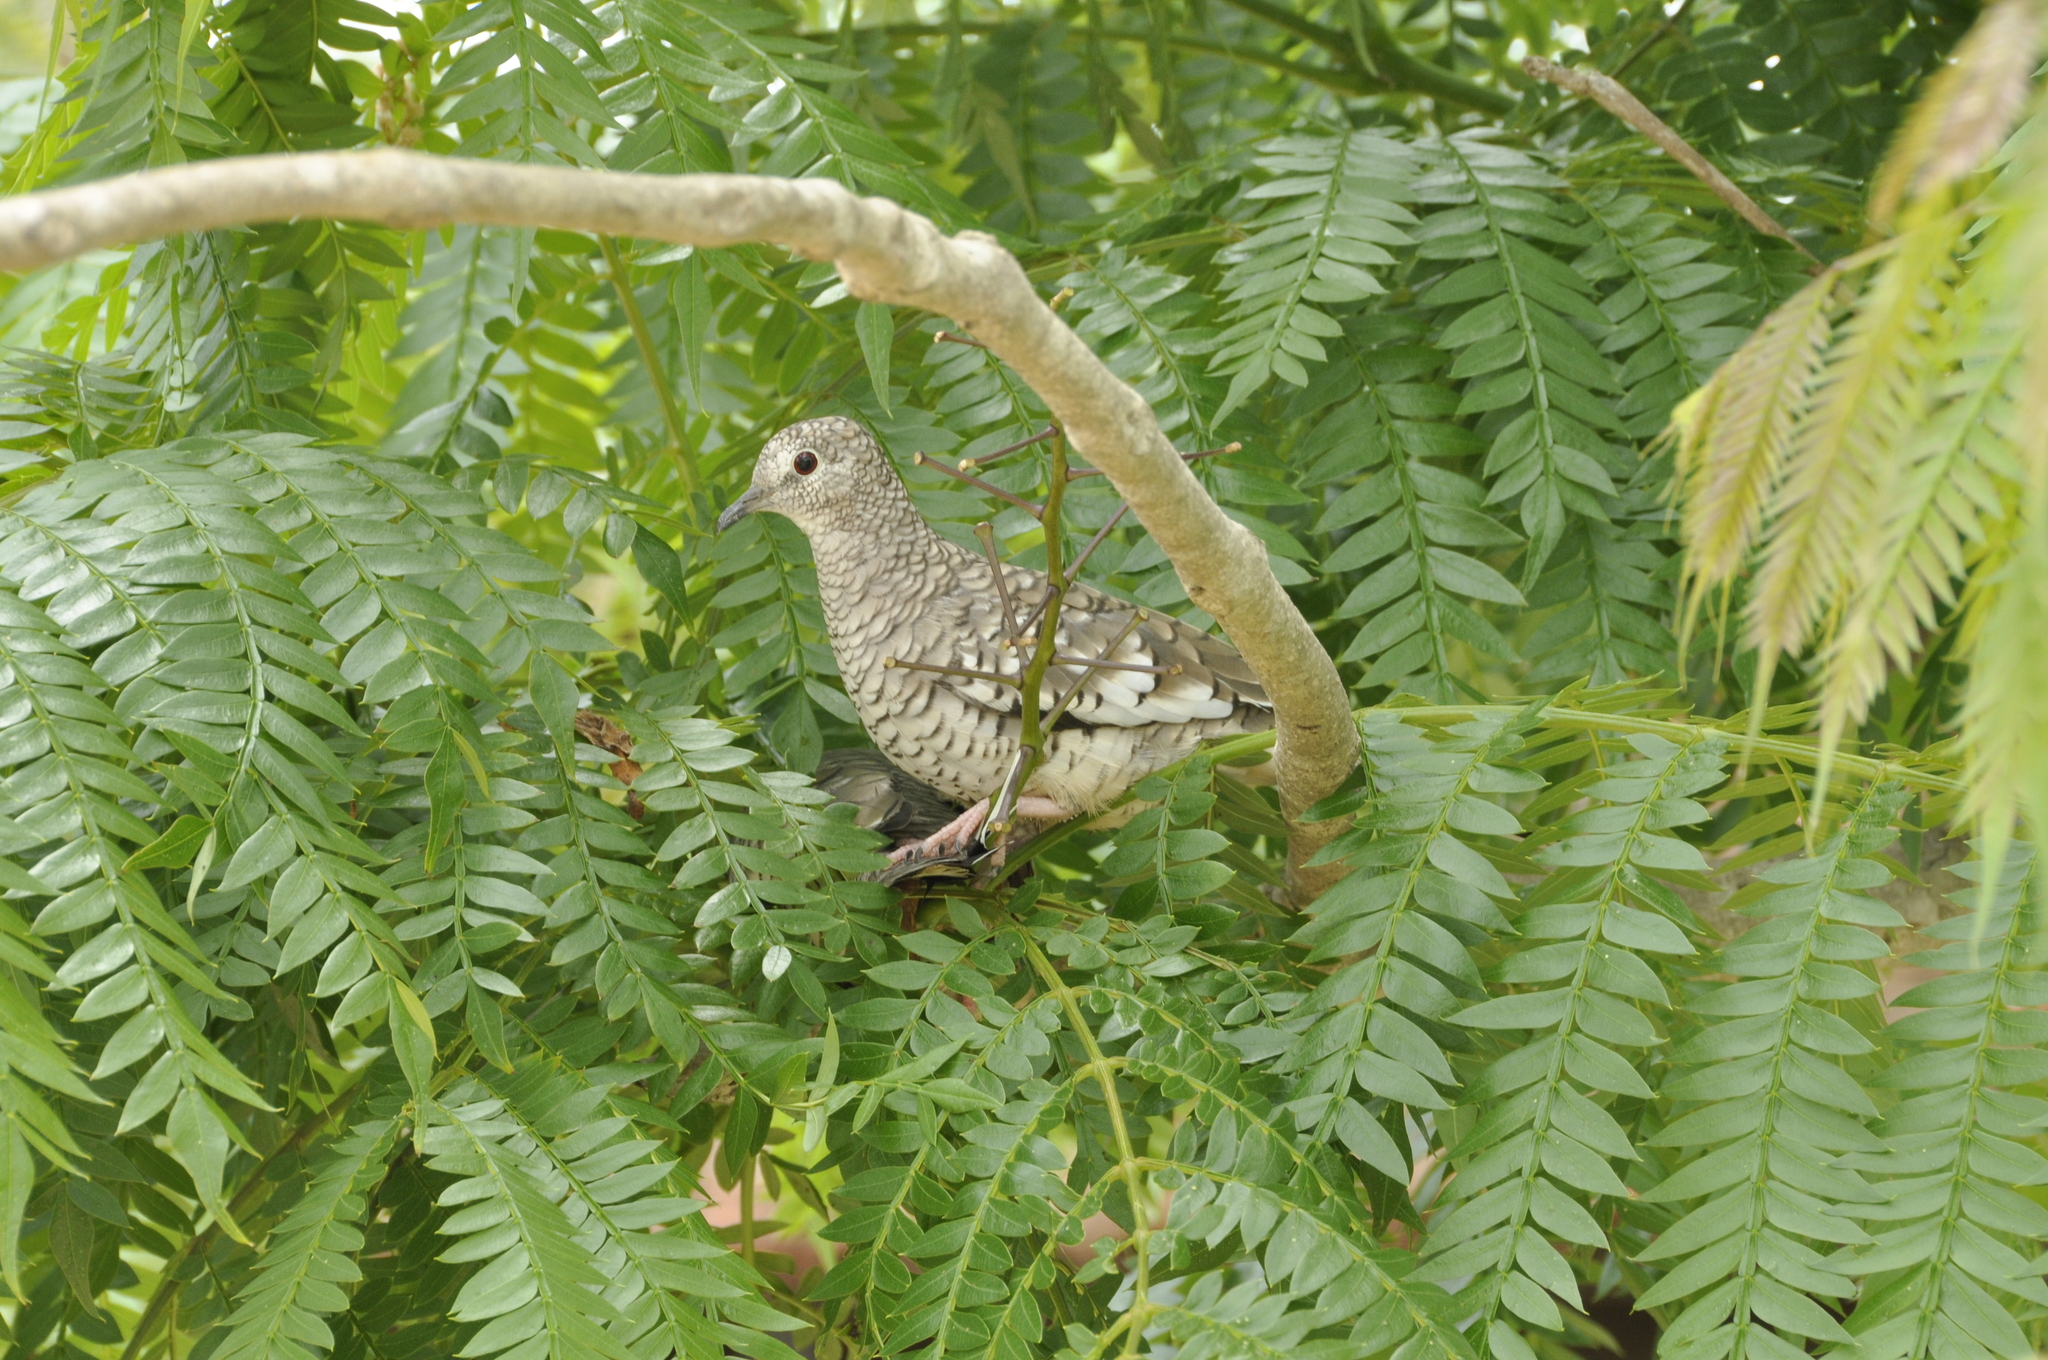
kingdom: Animalia
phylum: Chordata
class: Aves
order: Columbiformes
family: Columbidae
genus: Columbina
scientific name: Columbina squammata
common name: Scaled dove
